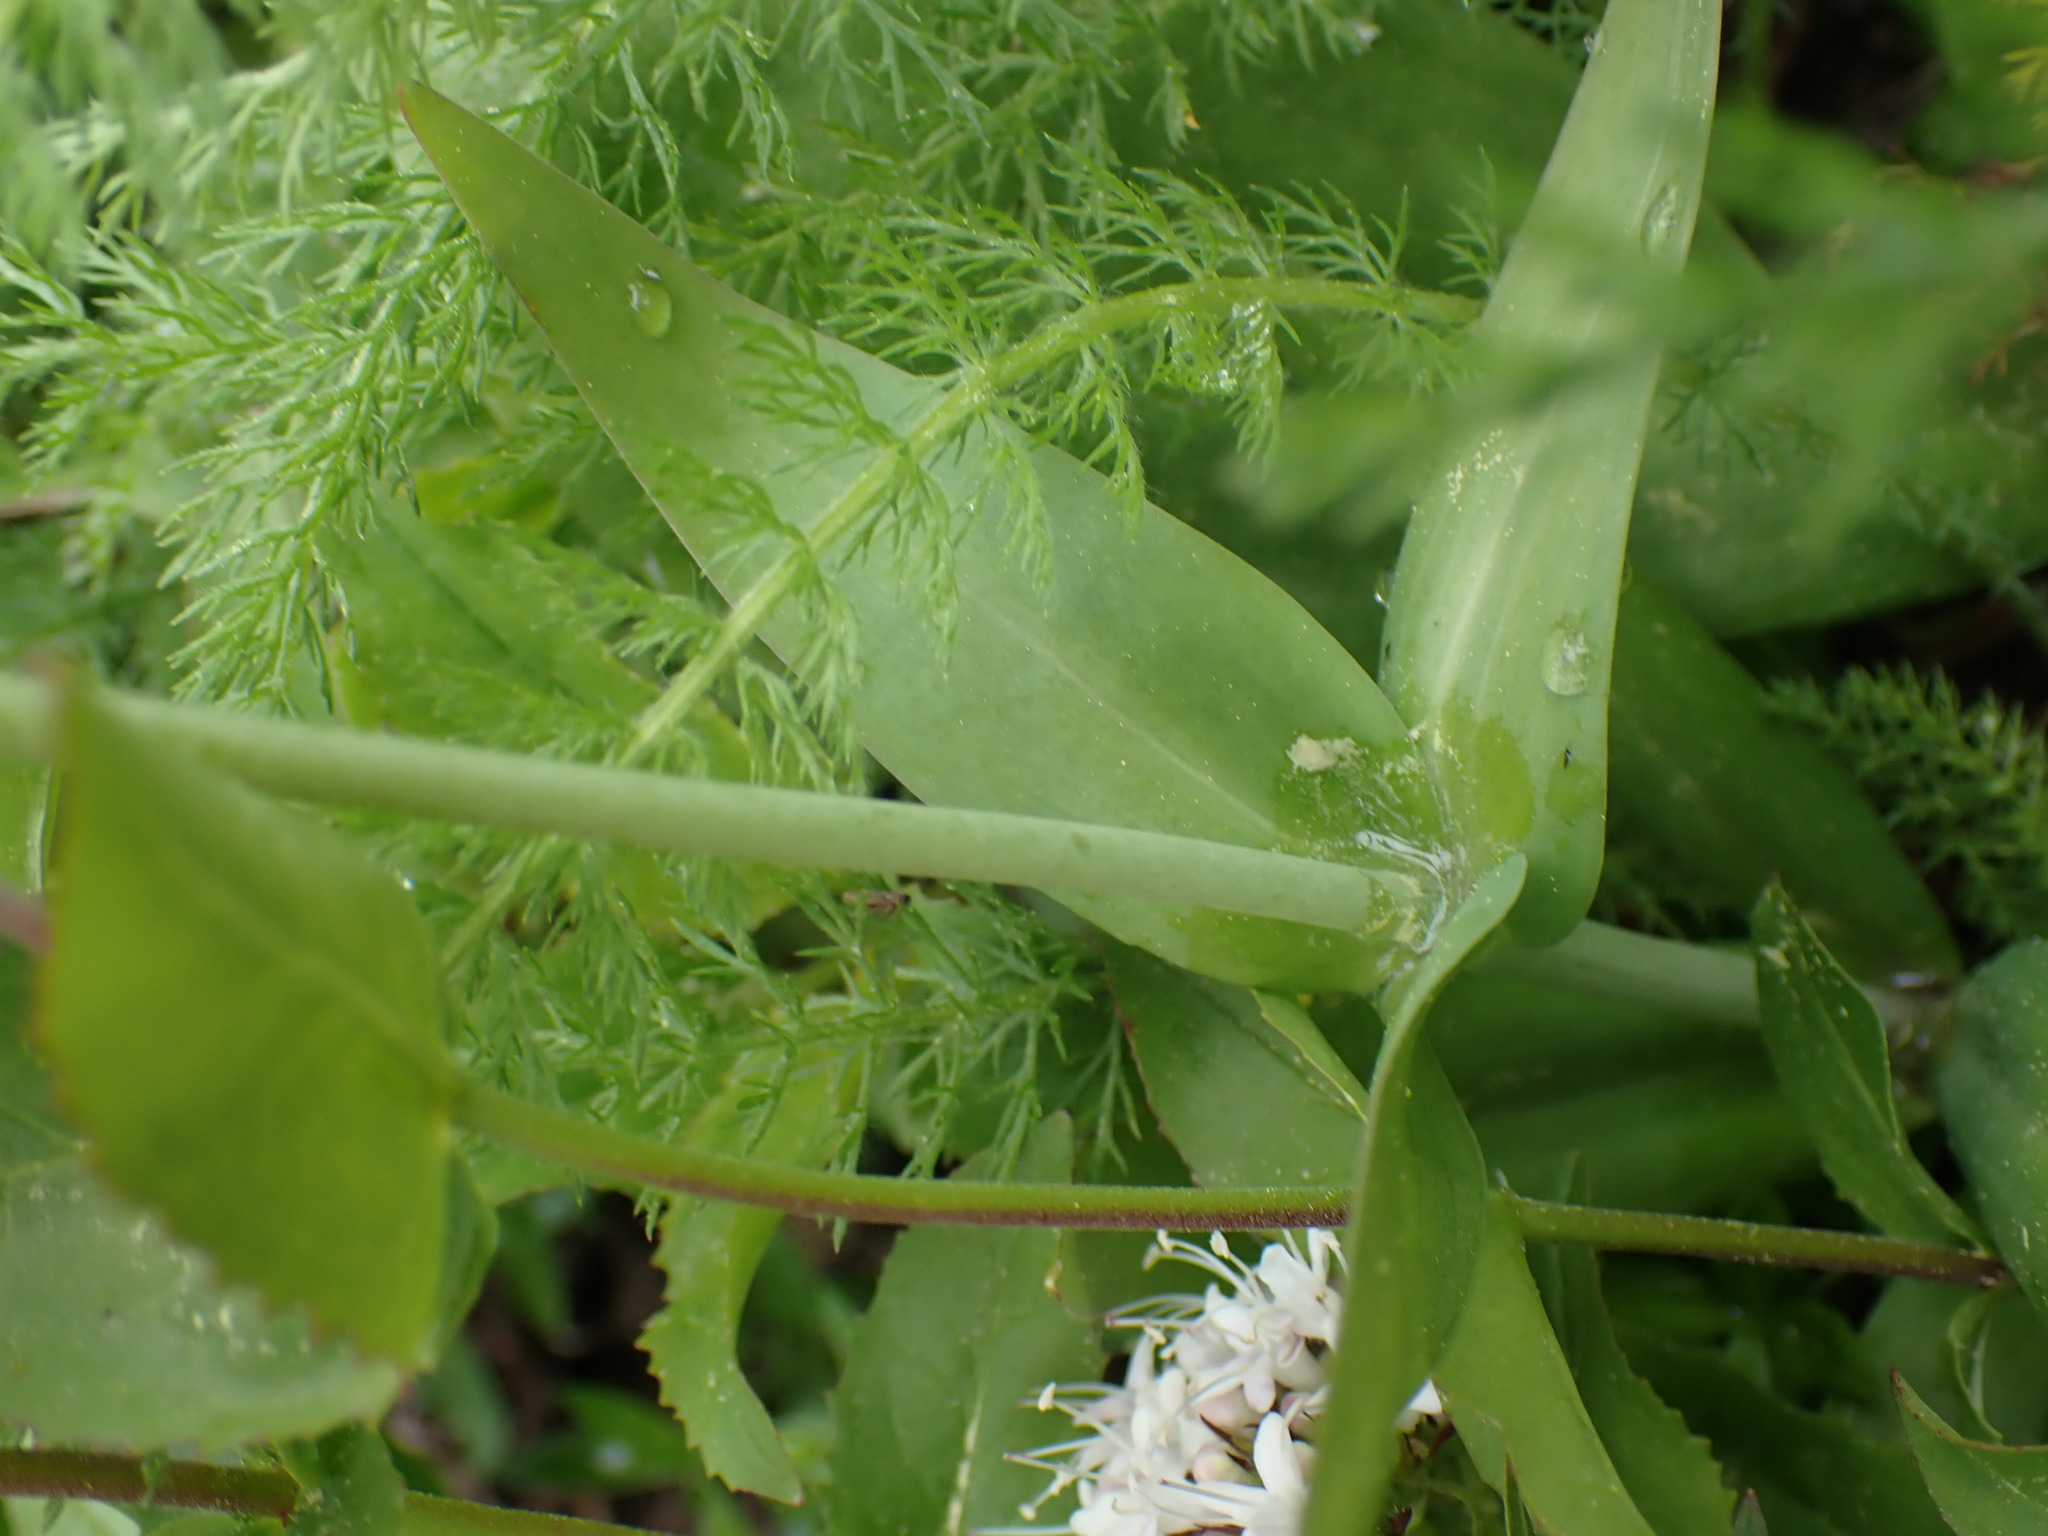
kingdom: Plantae
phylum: Tracheophyta
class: Liliopsida
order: Liliales
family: Liliaceae
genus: Fritillaria
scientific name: Fritillaria affinis
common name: Ojai fritillary
